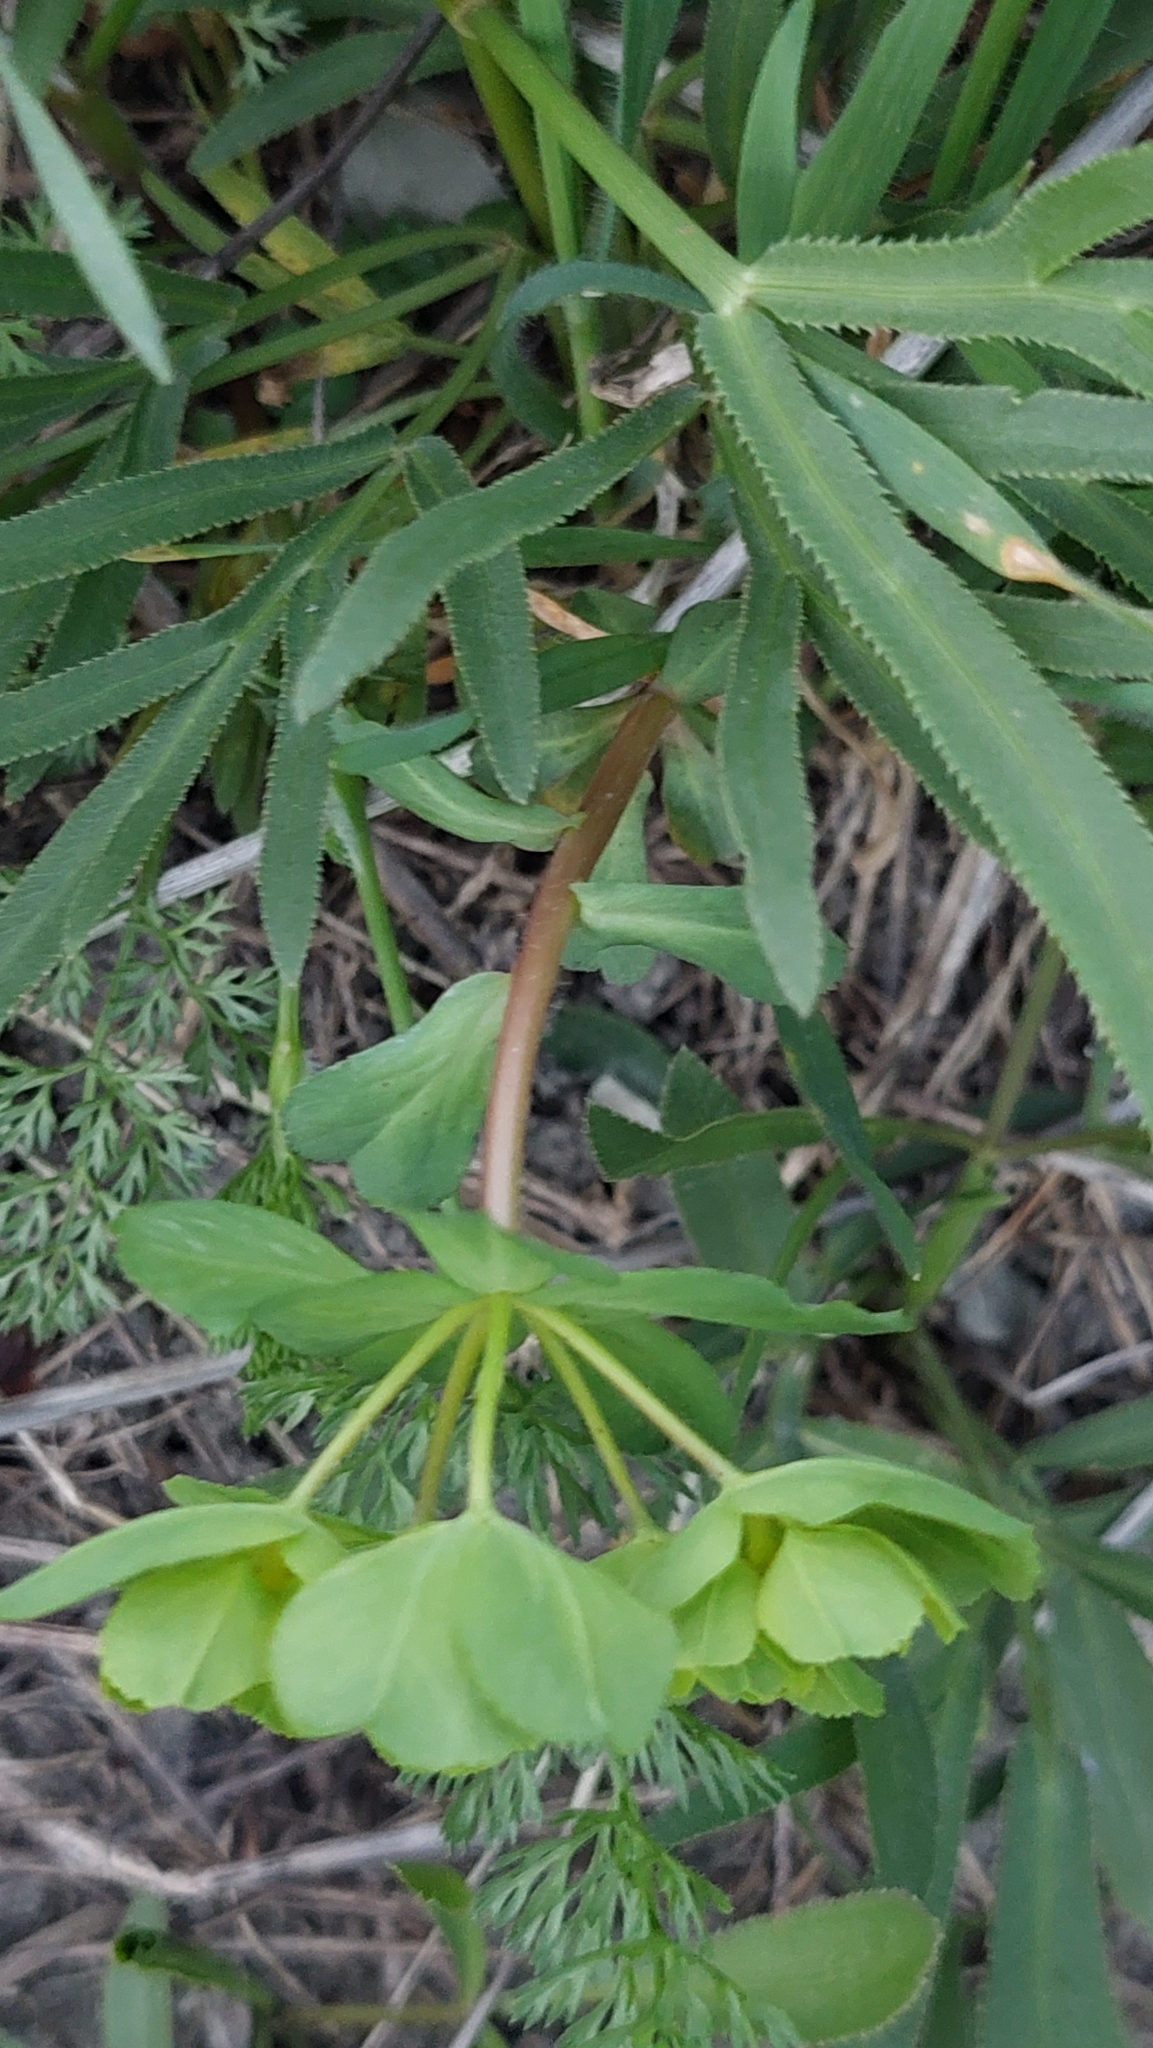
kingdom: Plantae
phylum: Tracheophyta
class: Magnoliopsida
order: Malpighiales
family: Euphorbiaceae
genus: Euphorbia
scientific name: Euphorbia helioscopia
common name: Sun spurge
